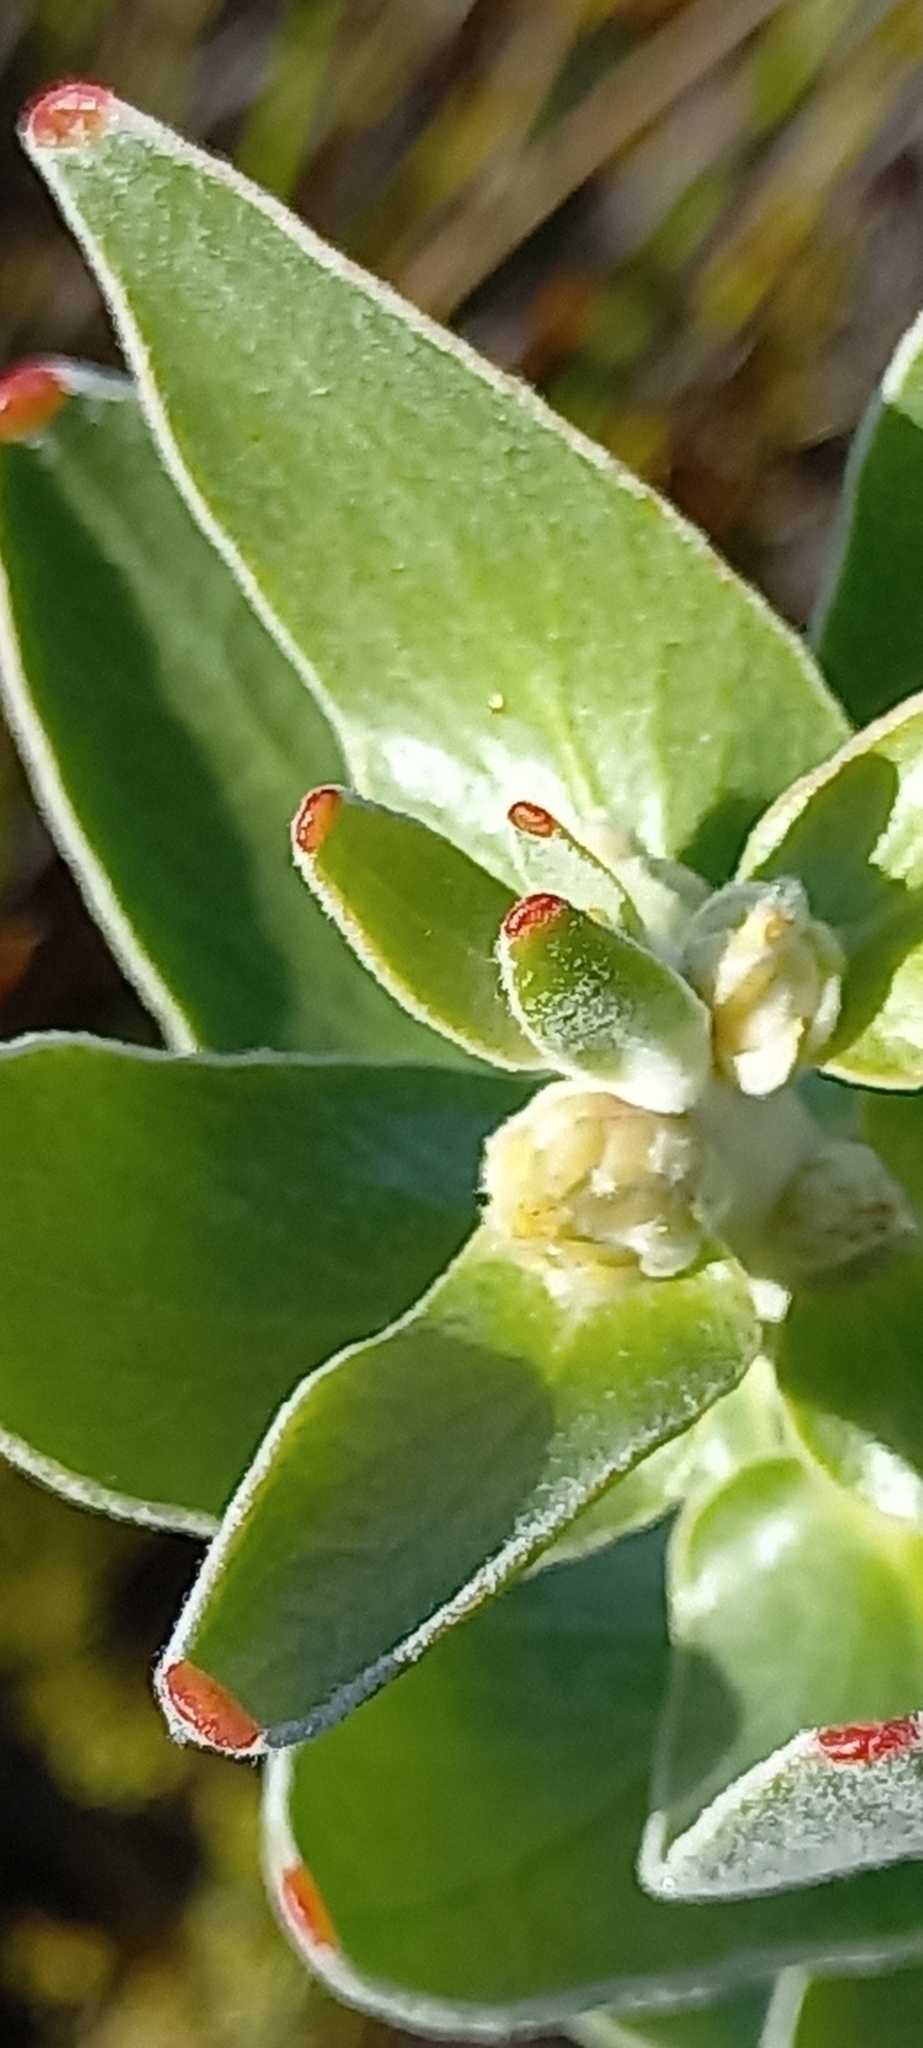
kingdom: Plantae
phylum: Tracheophyta
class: Magnoliopsida
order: Proteales
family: Proteaceae
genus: Leucospermum
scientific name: Leucospermum cordifolium
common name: Red pincushion-protea
